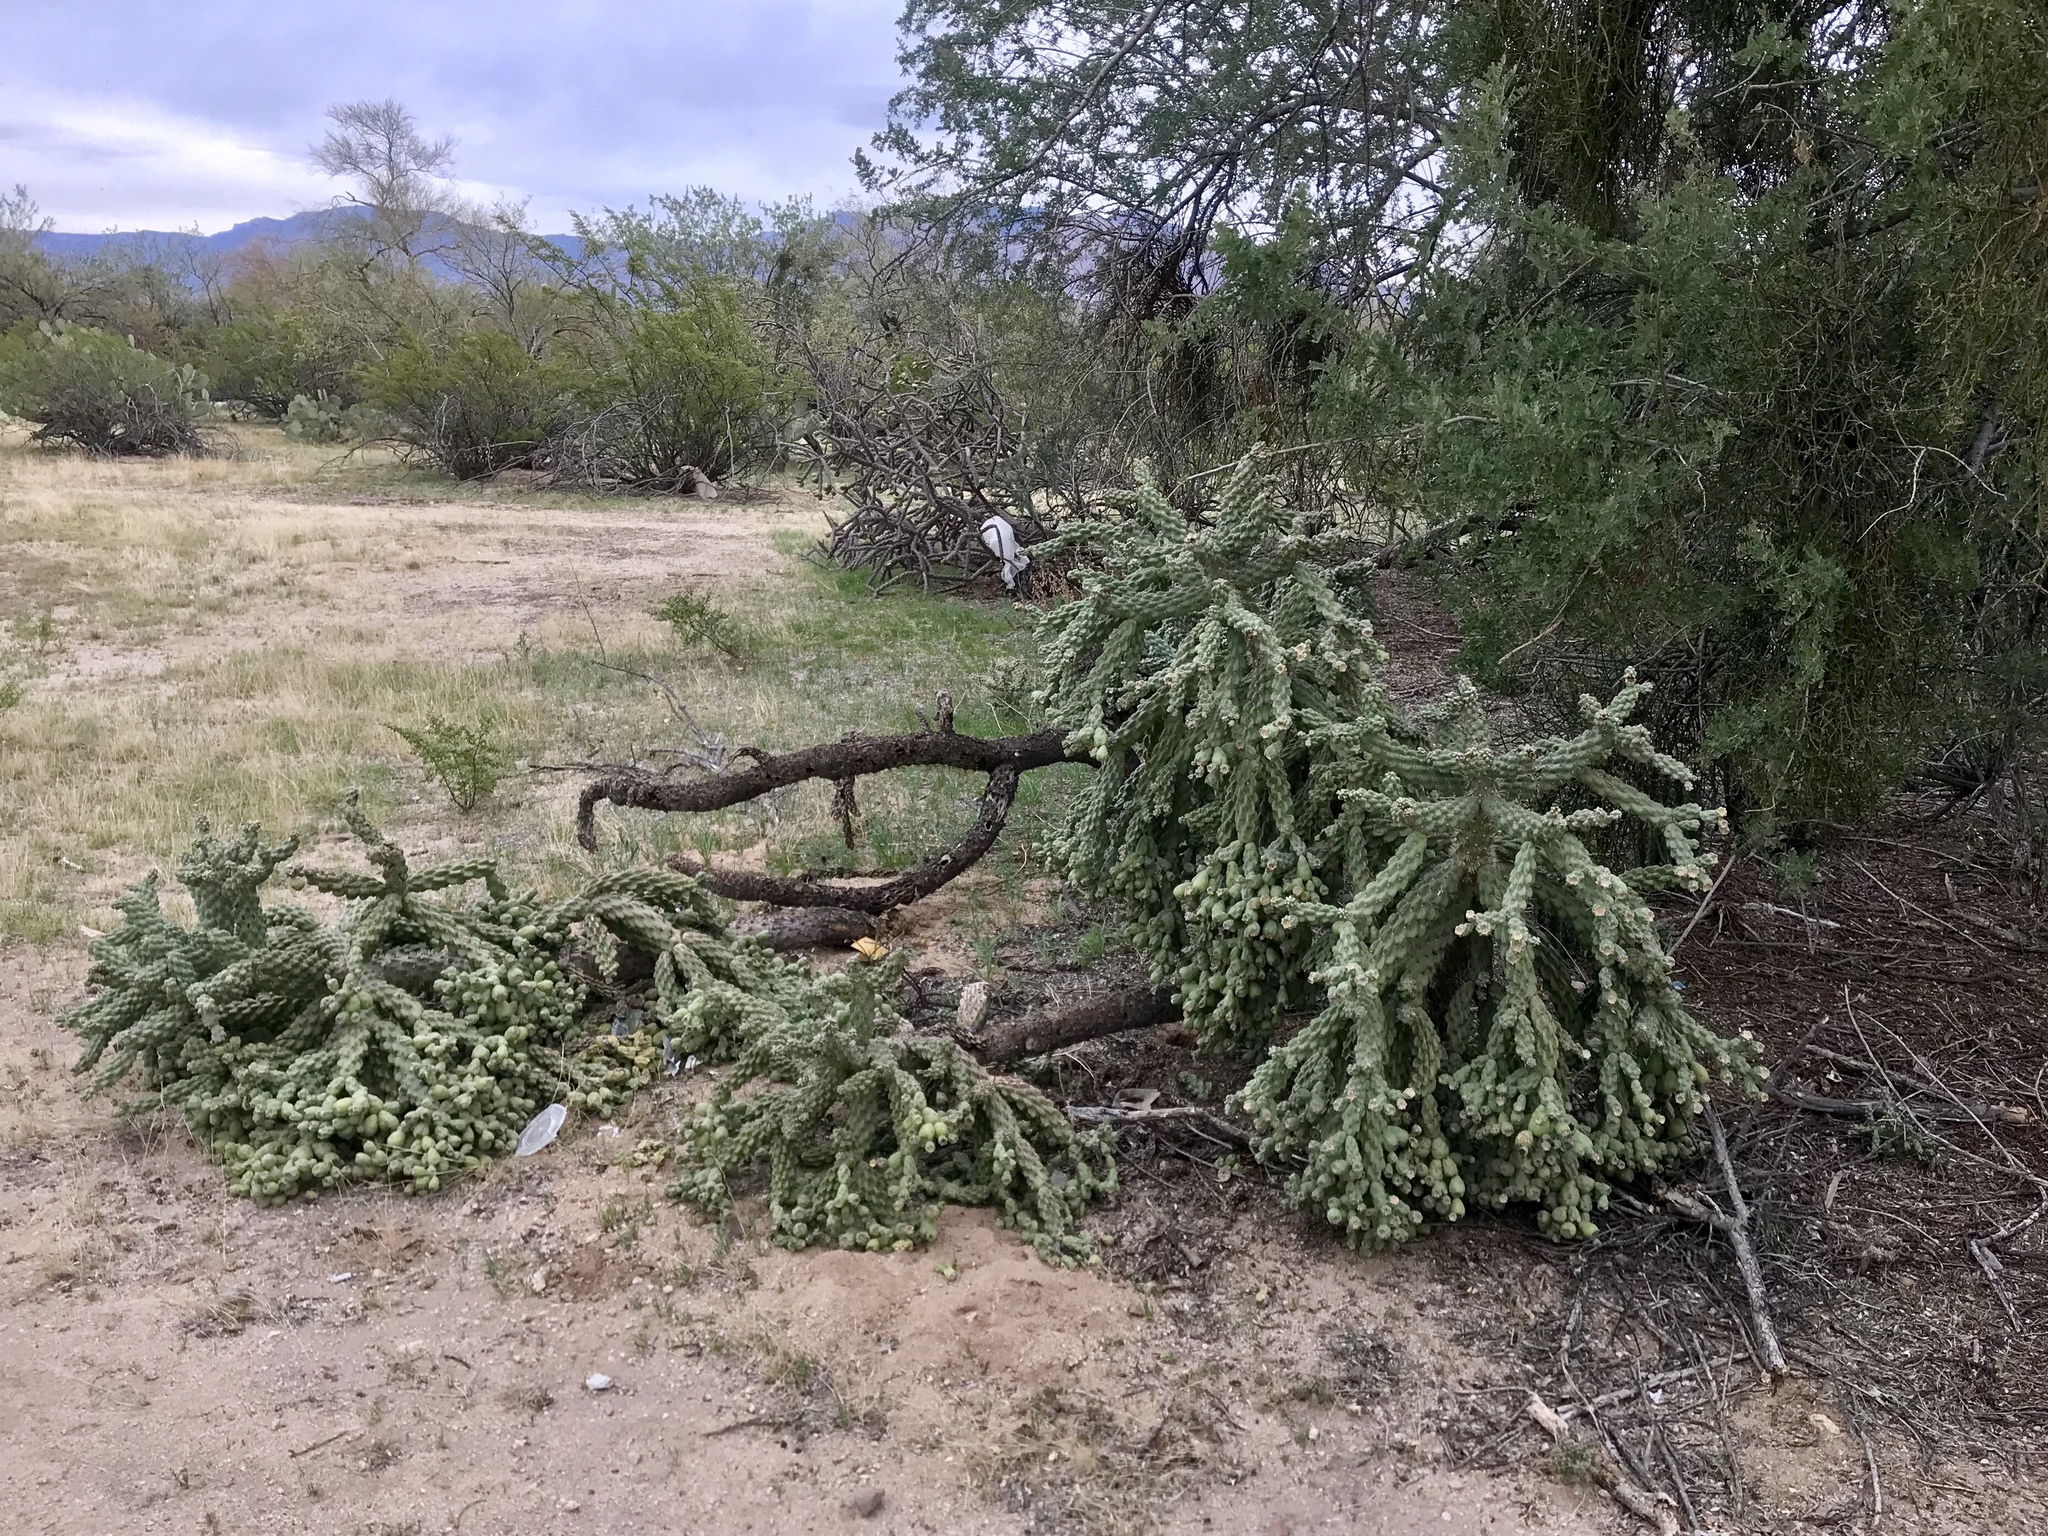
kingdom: Plantae
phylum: Tracheophyta
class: Magnoliopsida
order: Caryophyllales
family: Cactaceae
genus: Cylindropuntia
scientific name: Cylindropuntia fulgida
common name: Jumping cholla
